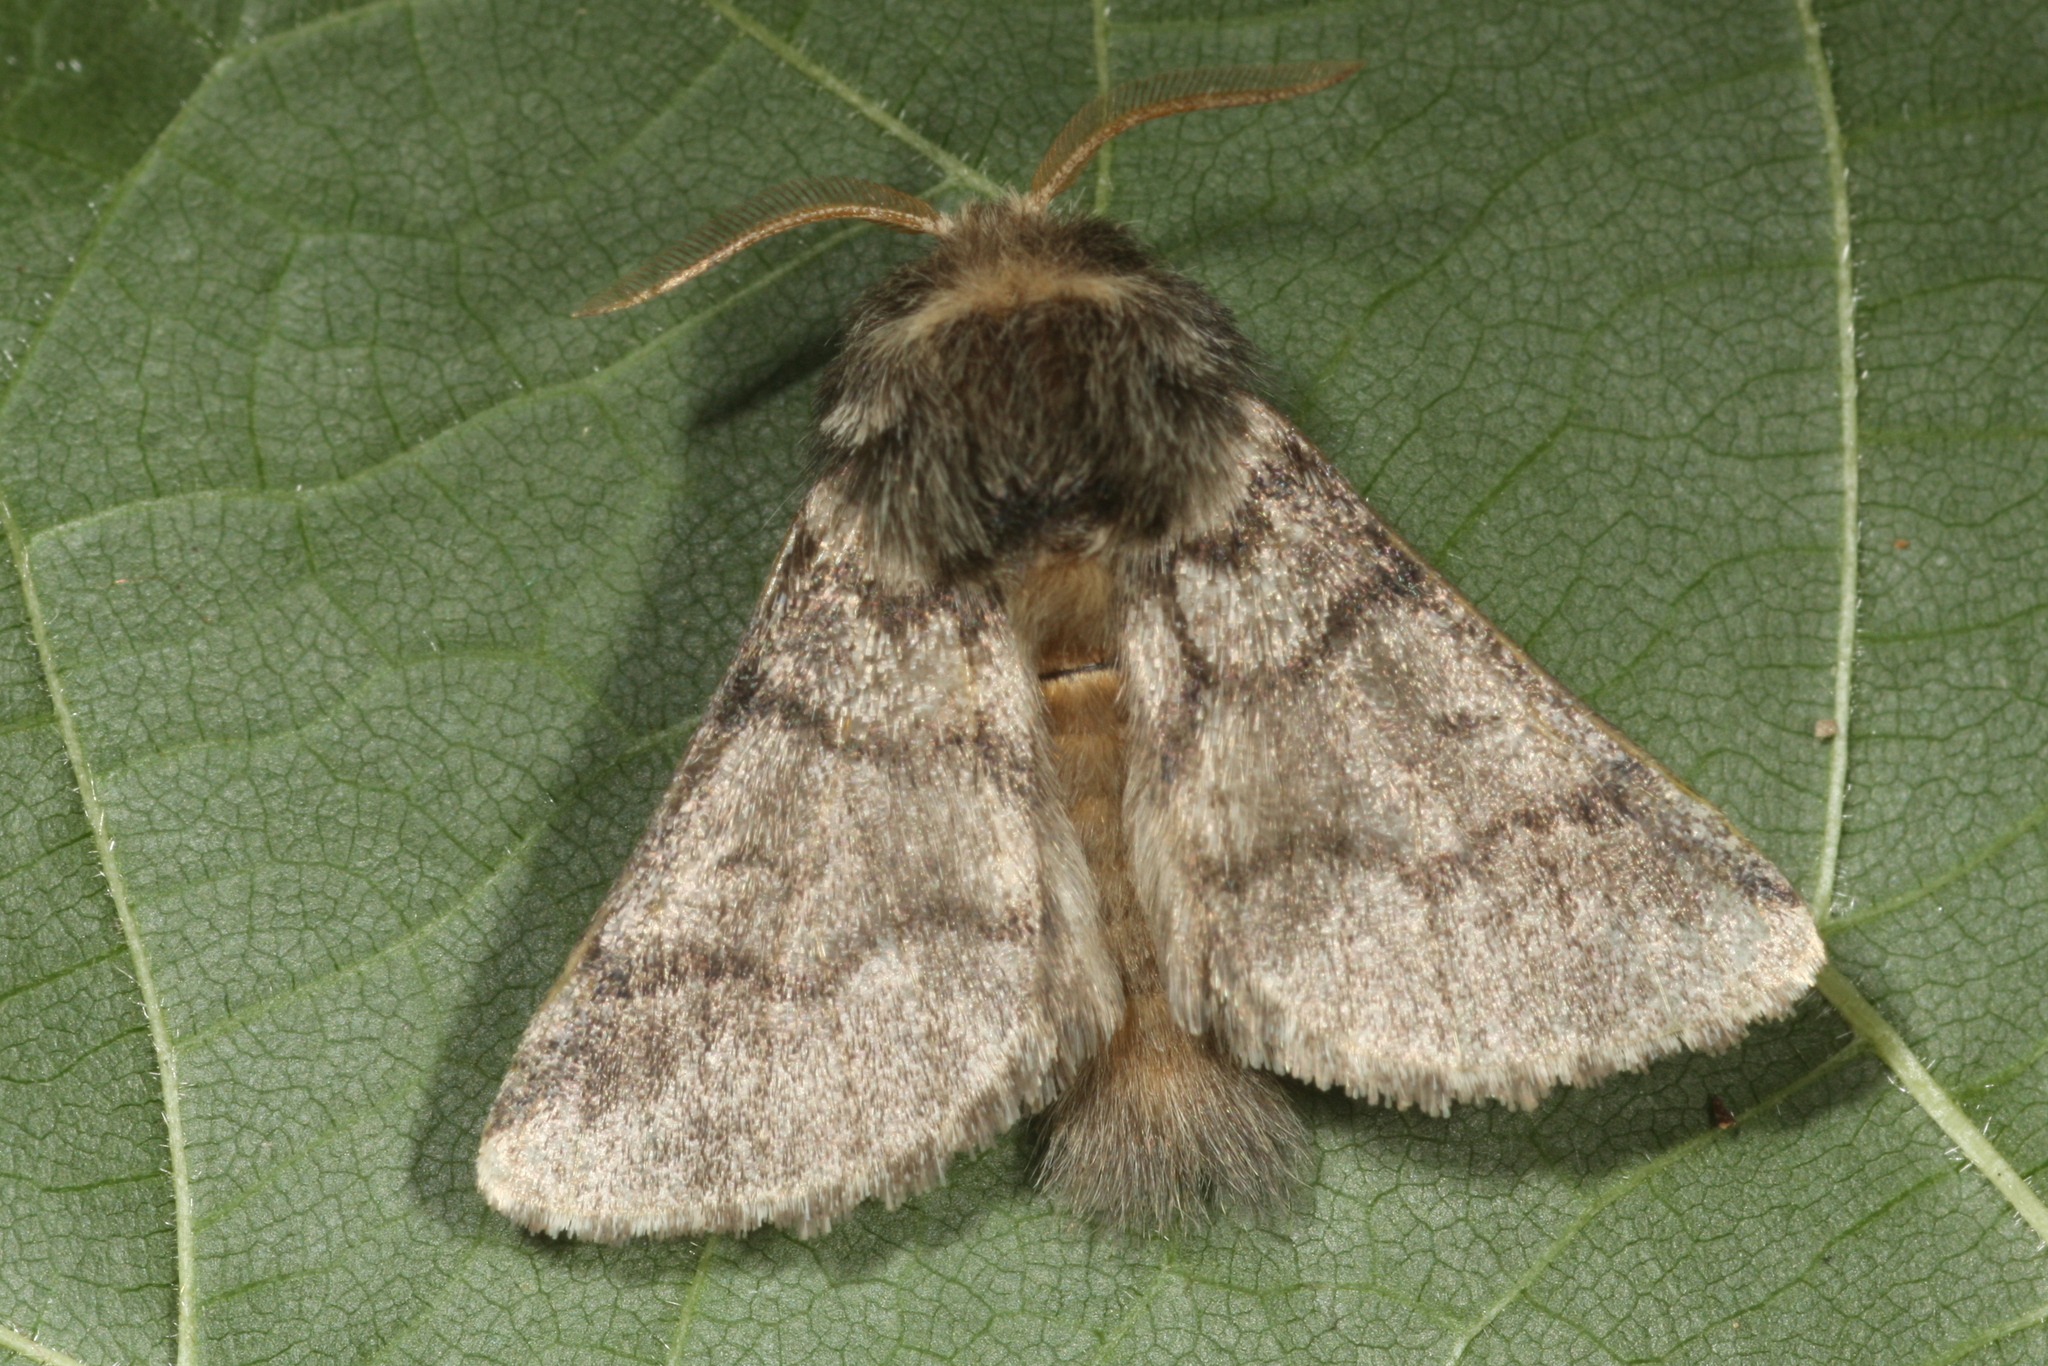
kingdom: Animalia
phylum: Arthropoda
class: Insecta
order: Lepidoptera
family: Notodontidae
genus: Thaumetopoea
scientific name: Thaumetopoea processionea
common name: Oak processionea
